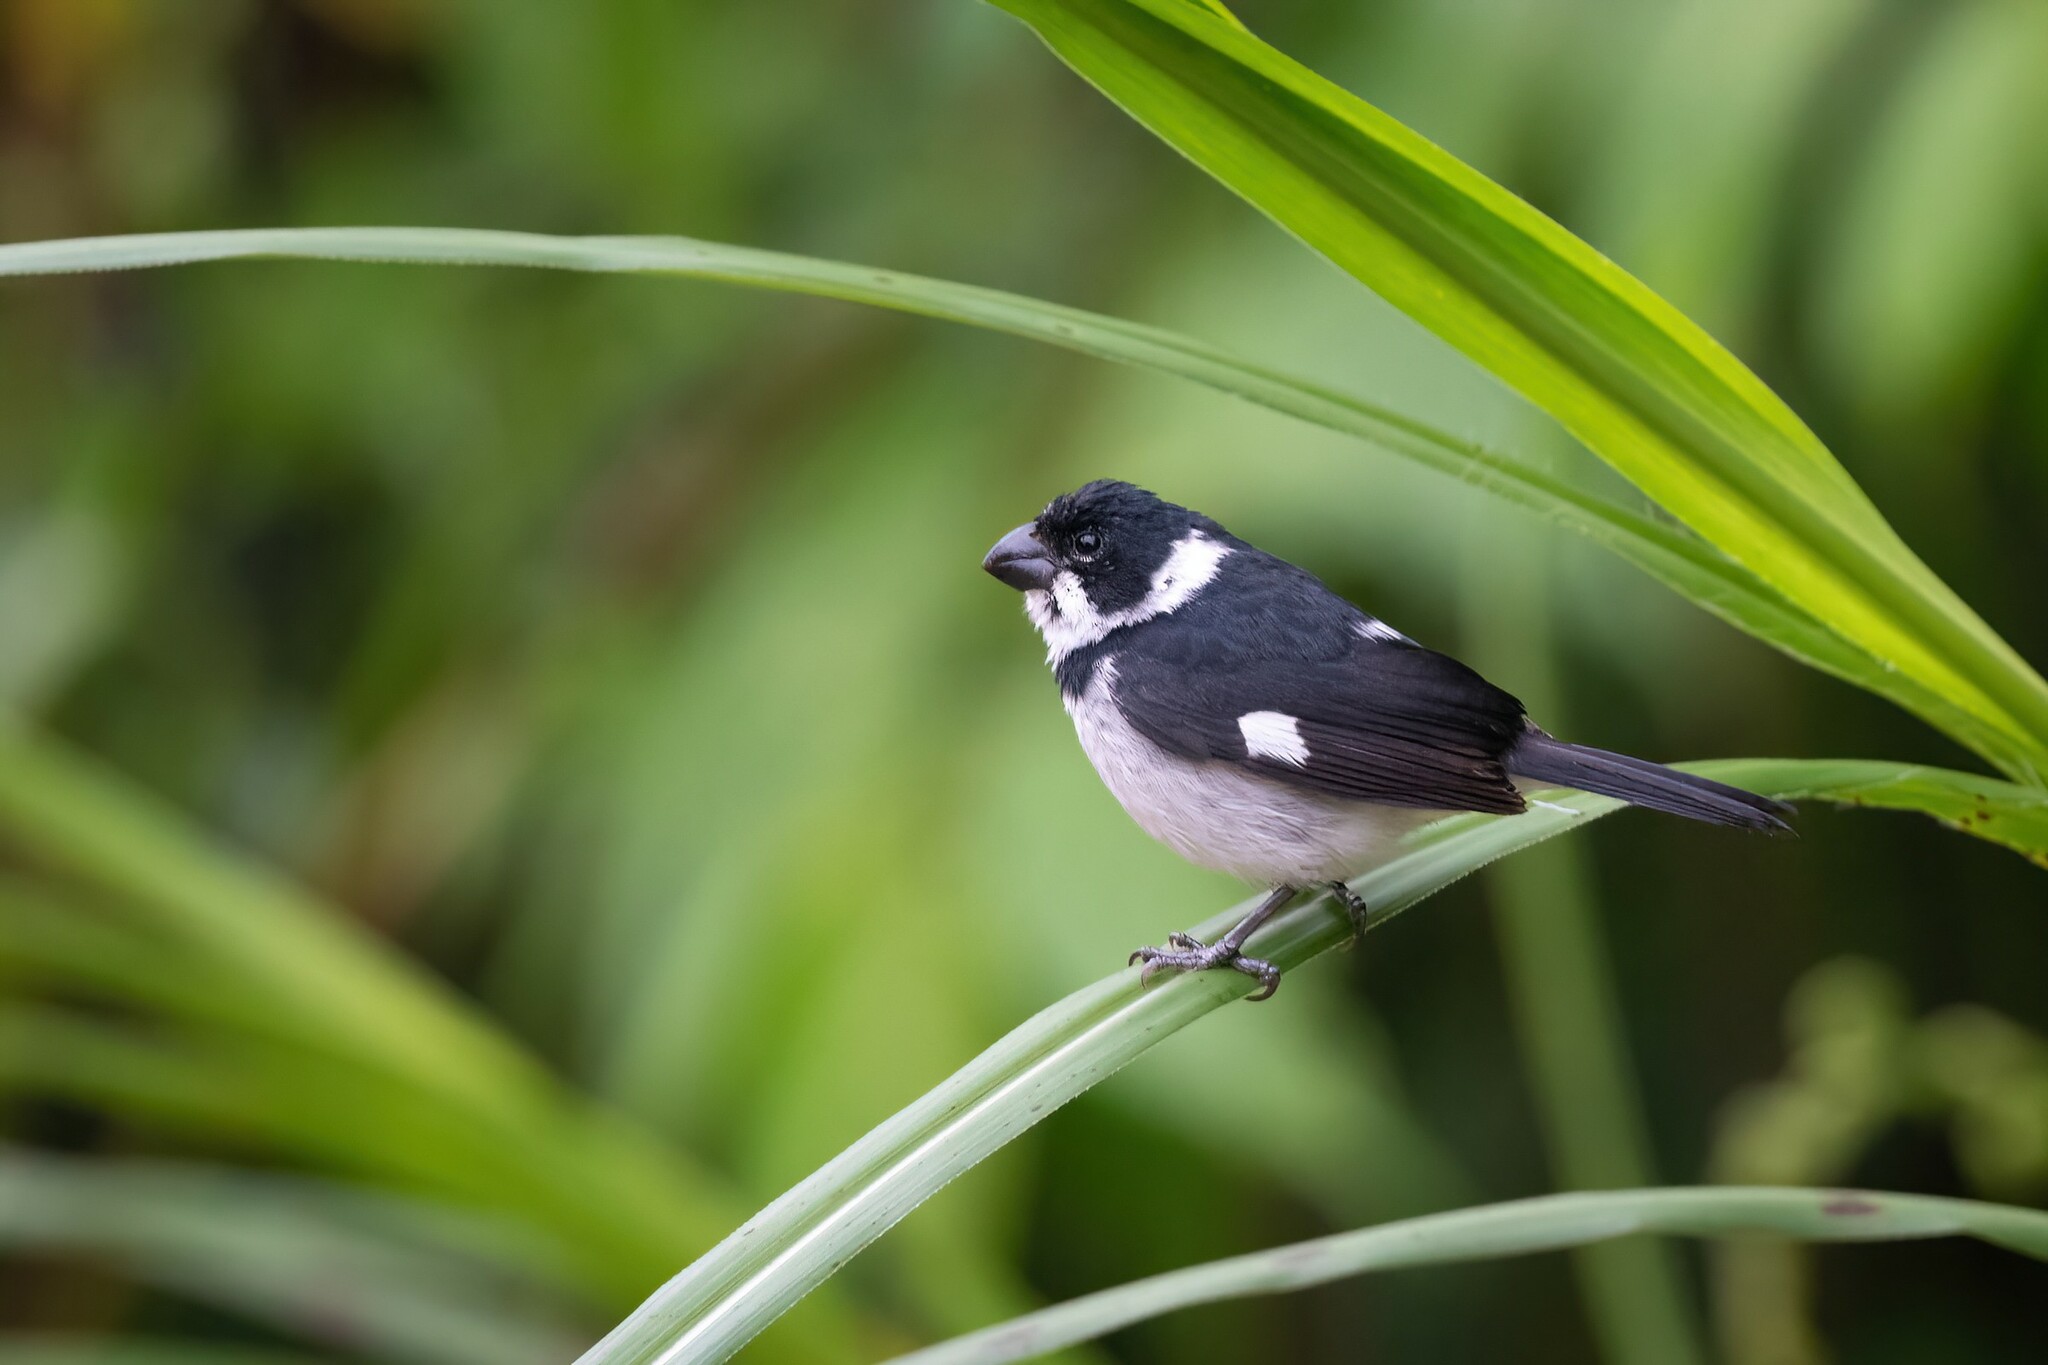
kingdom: Animalia
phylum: Chordata
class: Aves
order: Passeriformes
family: Thraupidae
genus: Sporophila
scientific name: Sporophila corvina
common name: Variable seedeater
